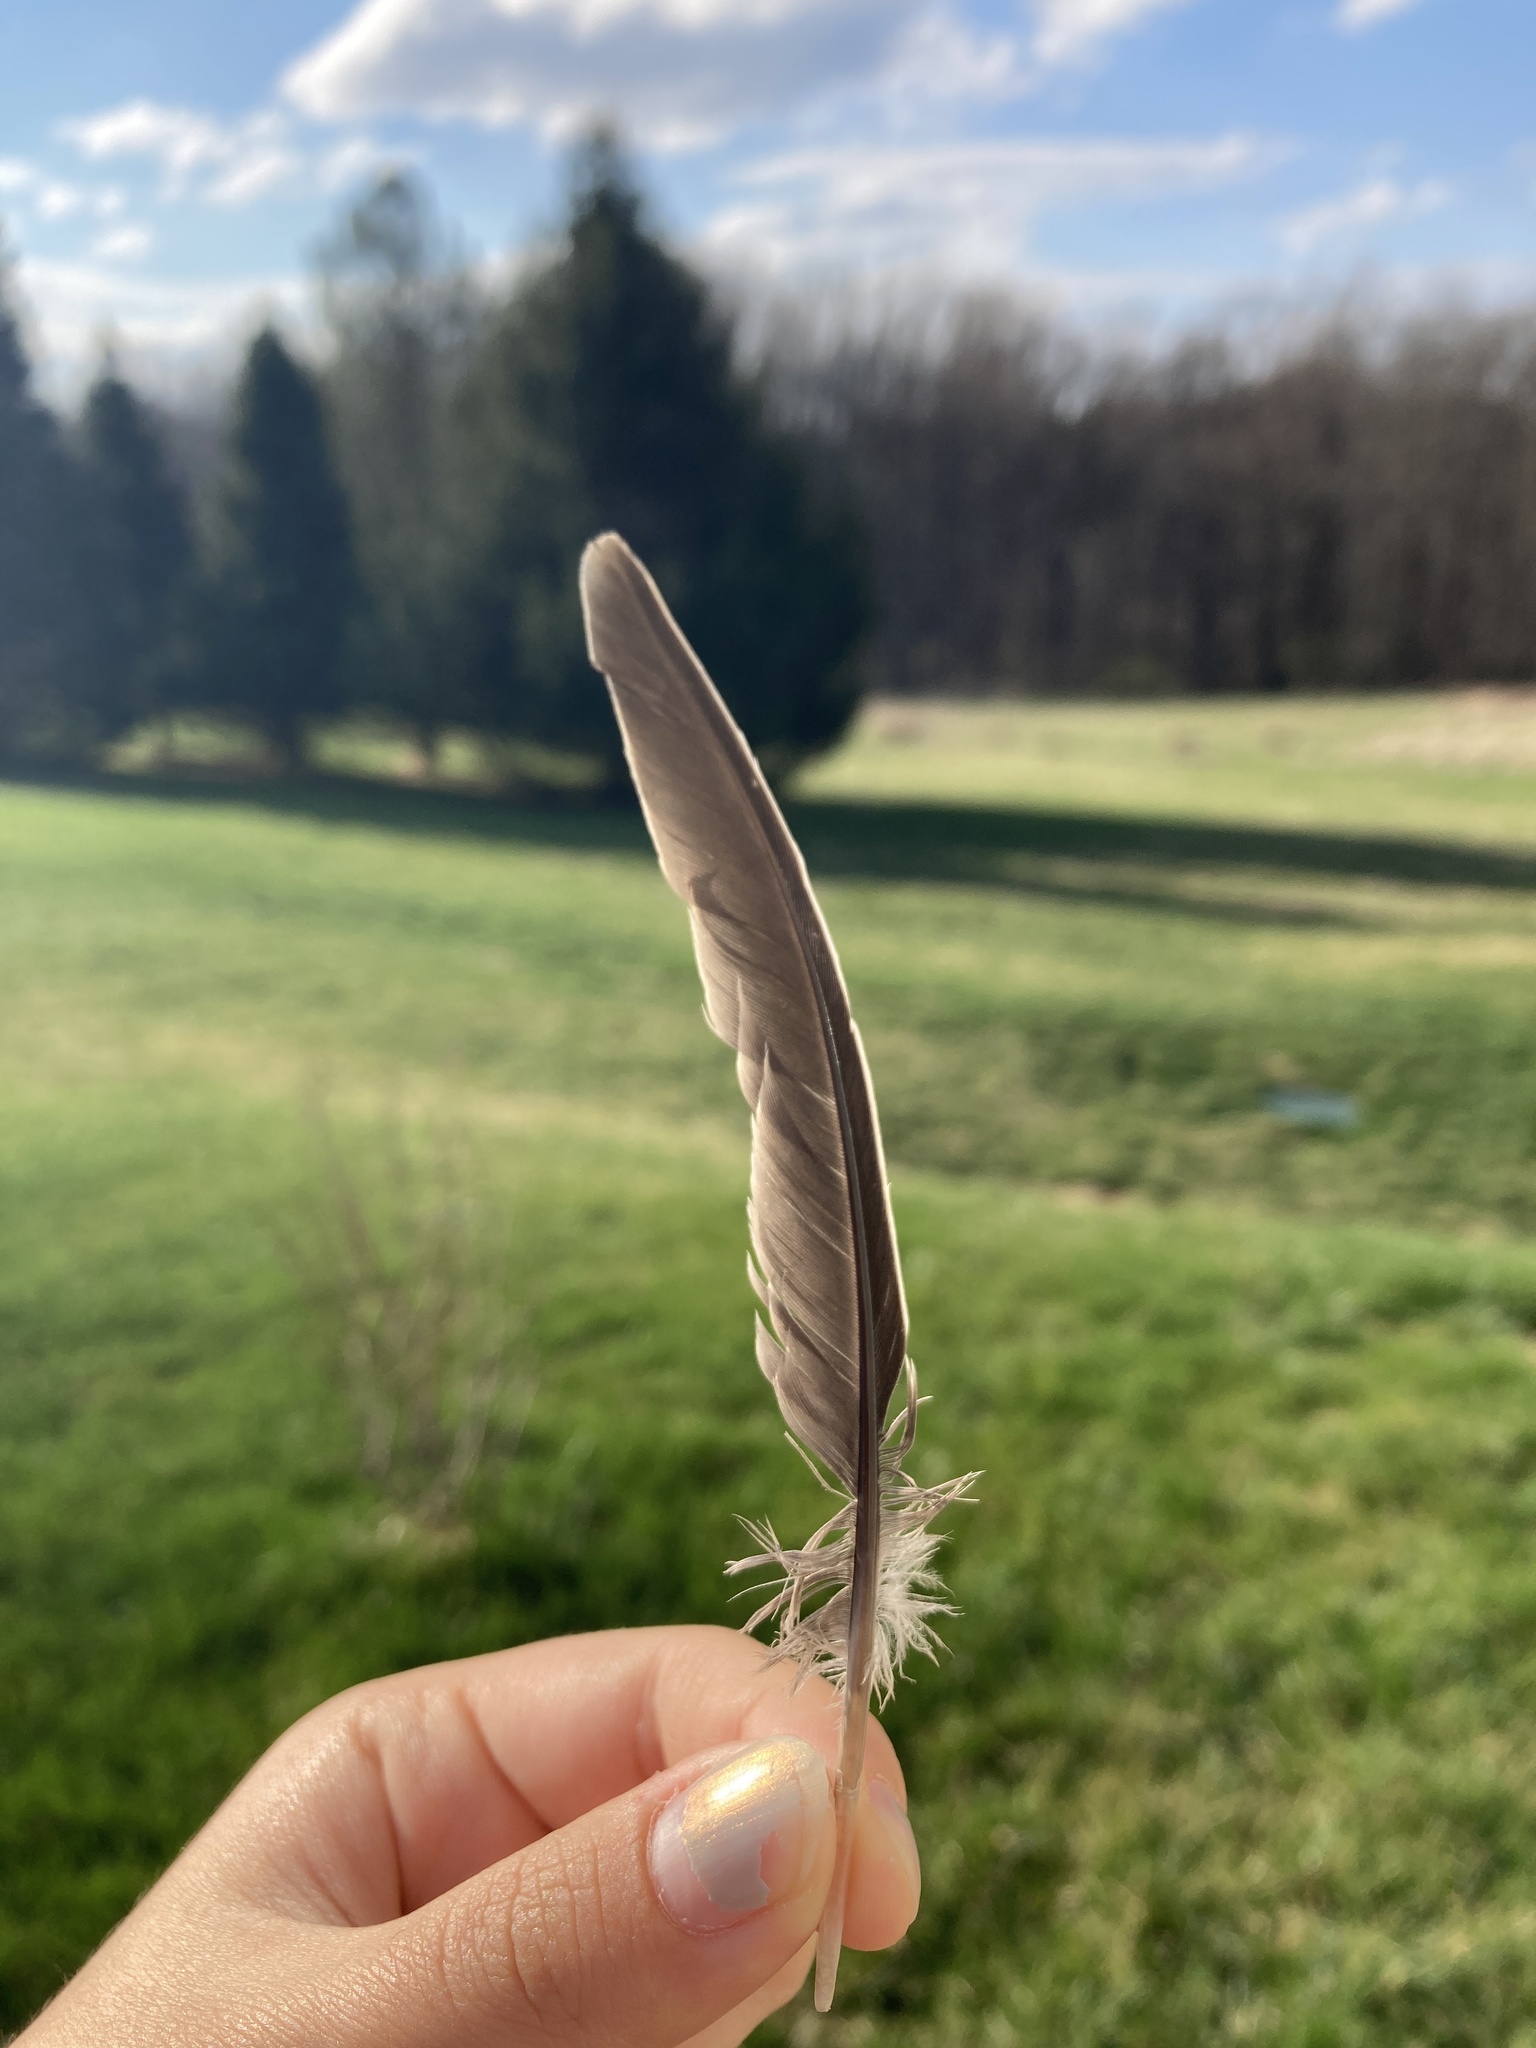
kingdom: Animalia
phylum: Chordata
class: Aves
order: Columbiformes
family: Columbidae
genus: Zenaida
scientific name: Zenaida macroura
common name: Mourning dove
